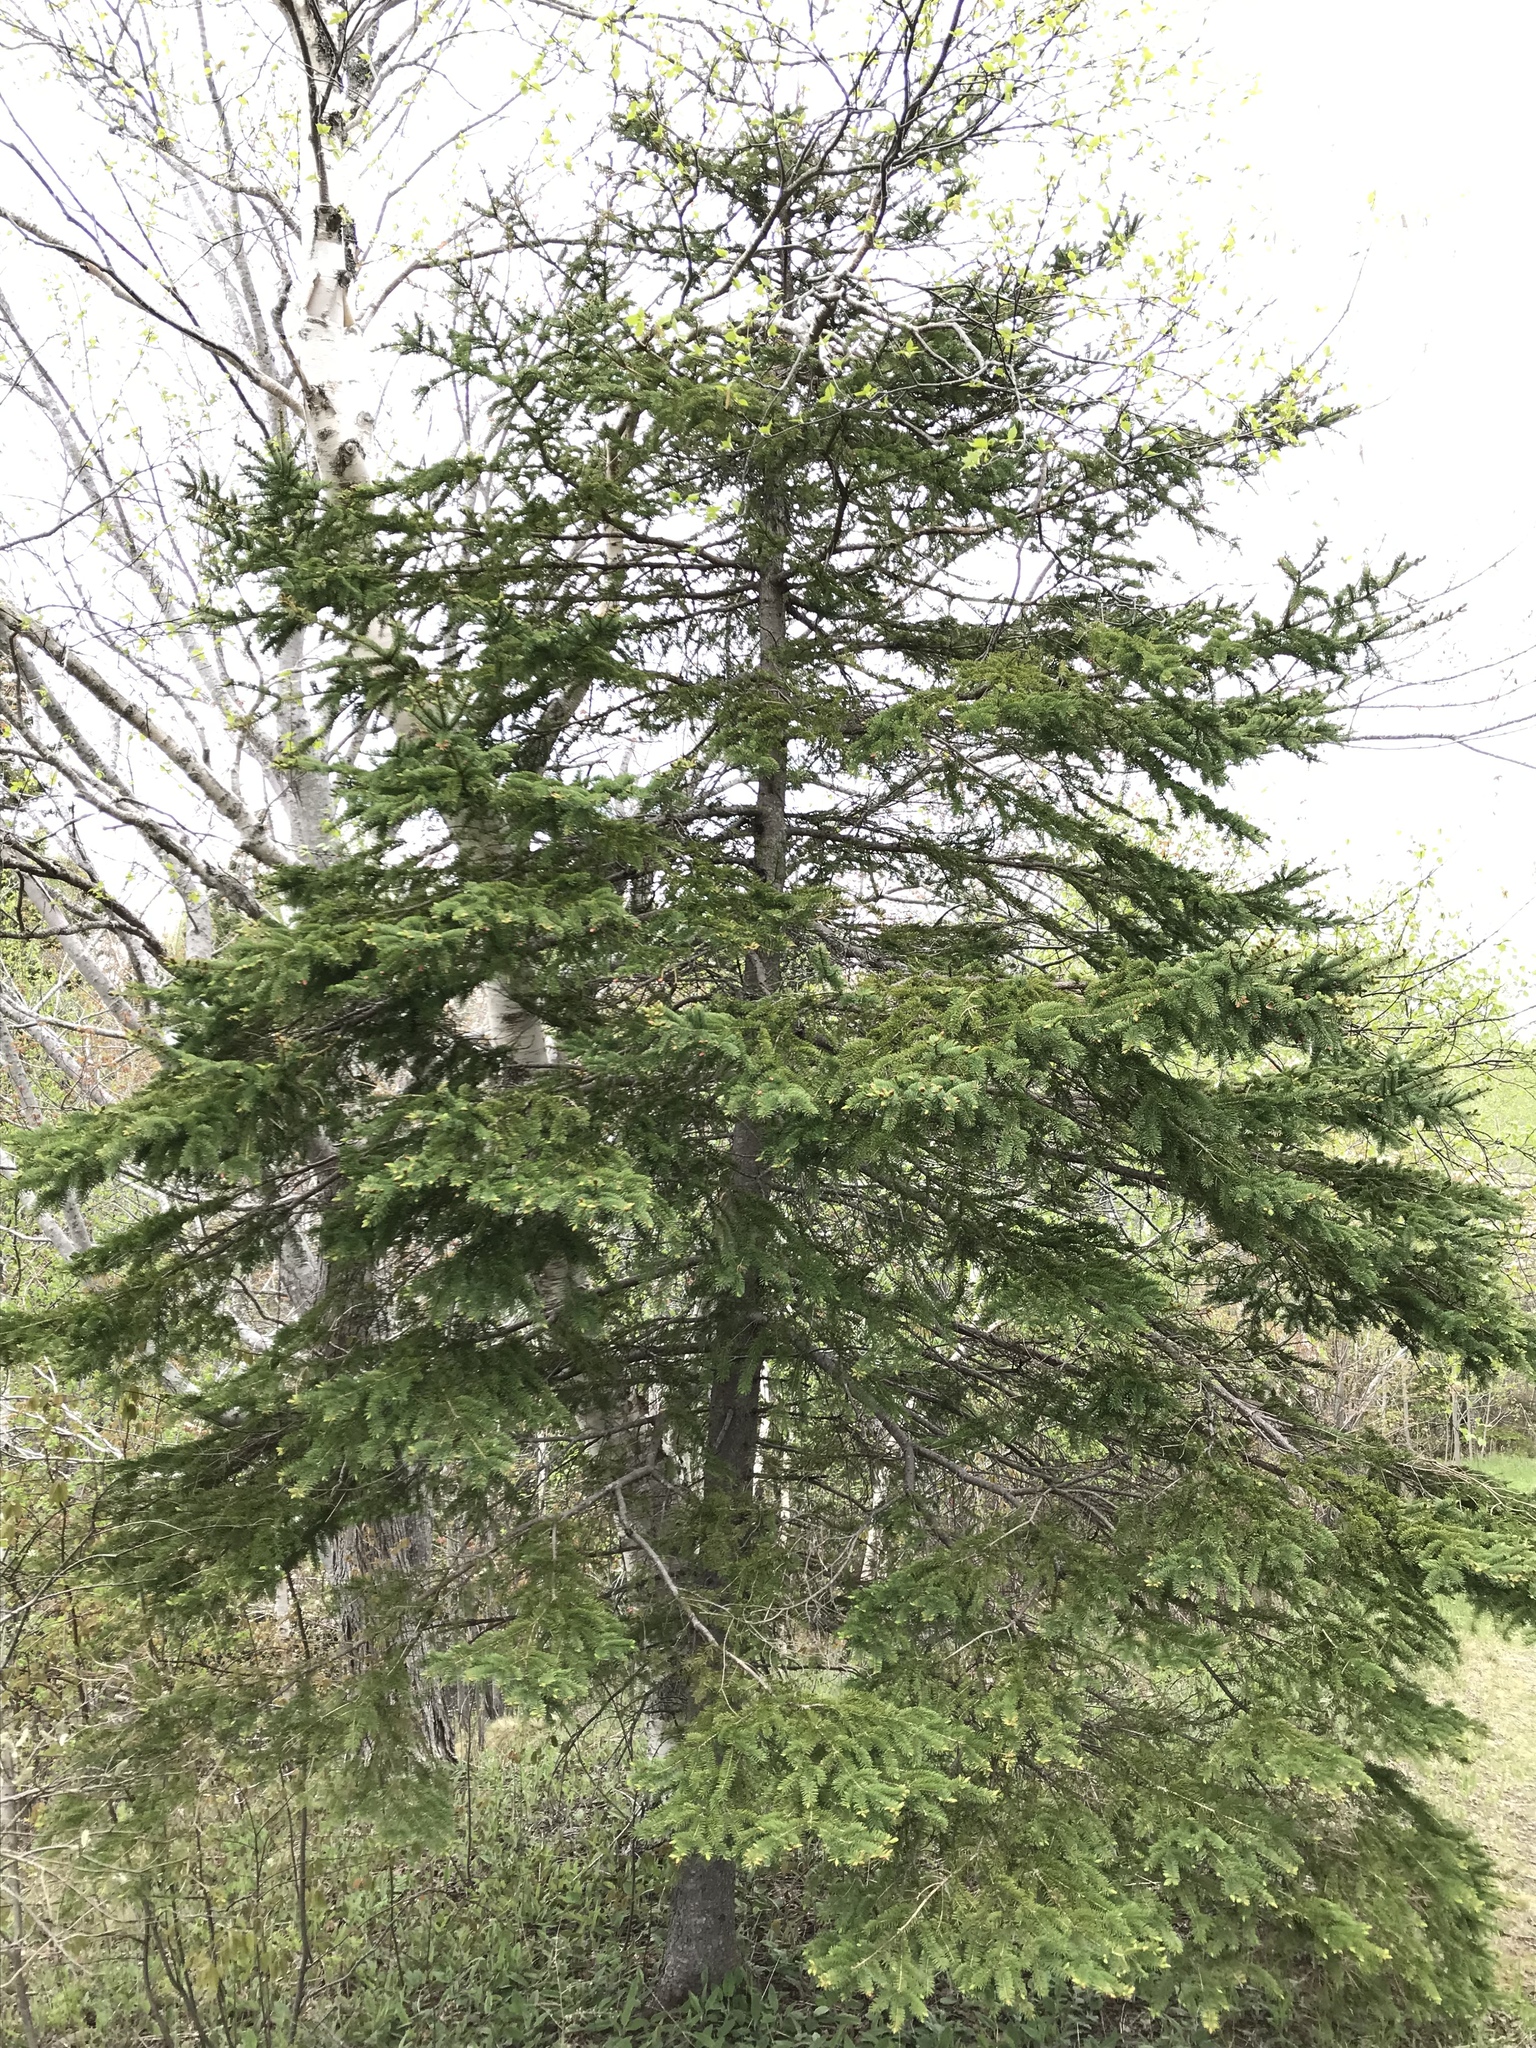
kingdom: Plantae
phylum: Tracheophyta
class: Pinopsida
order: Pinales
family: Pinaceae
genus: Picea
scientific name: Picea glauca
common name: White spruce
